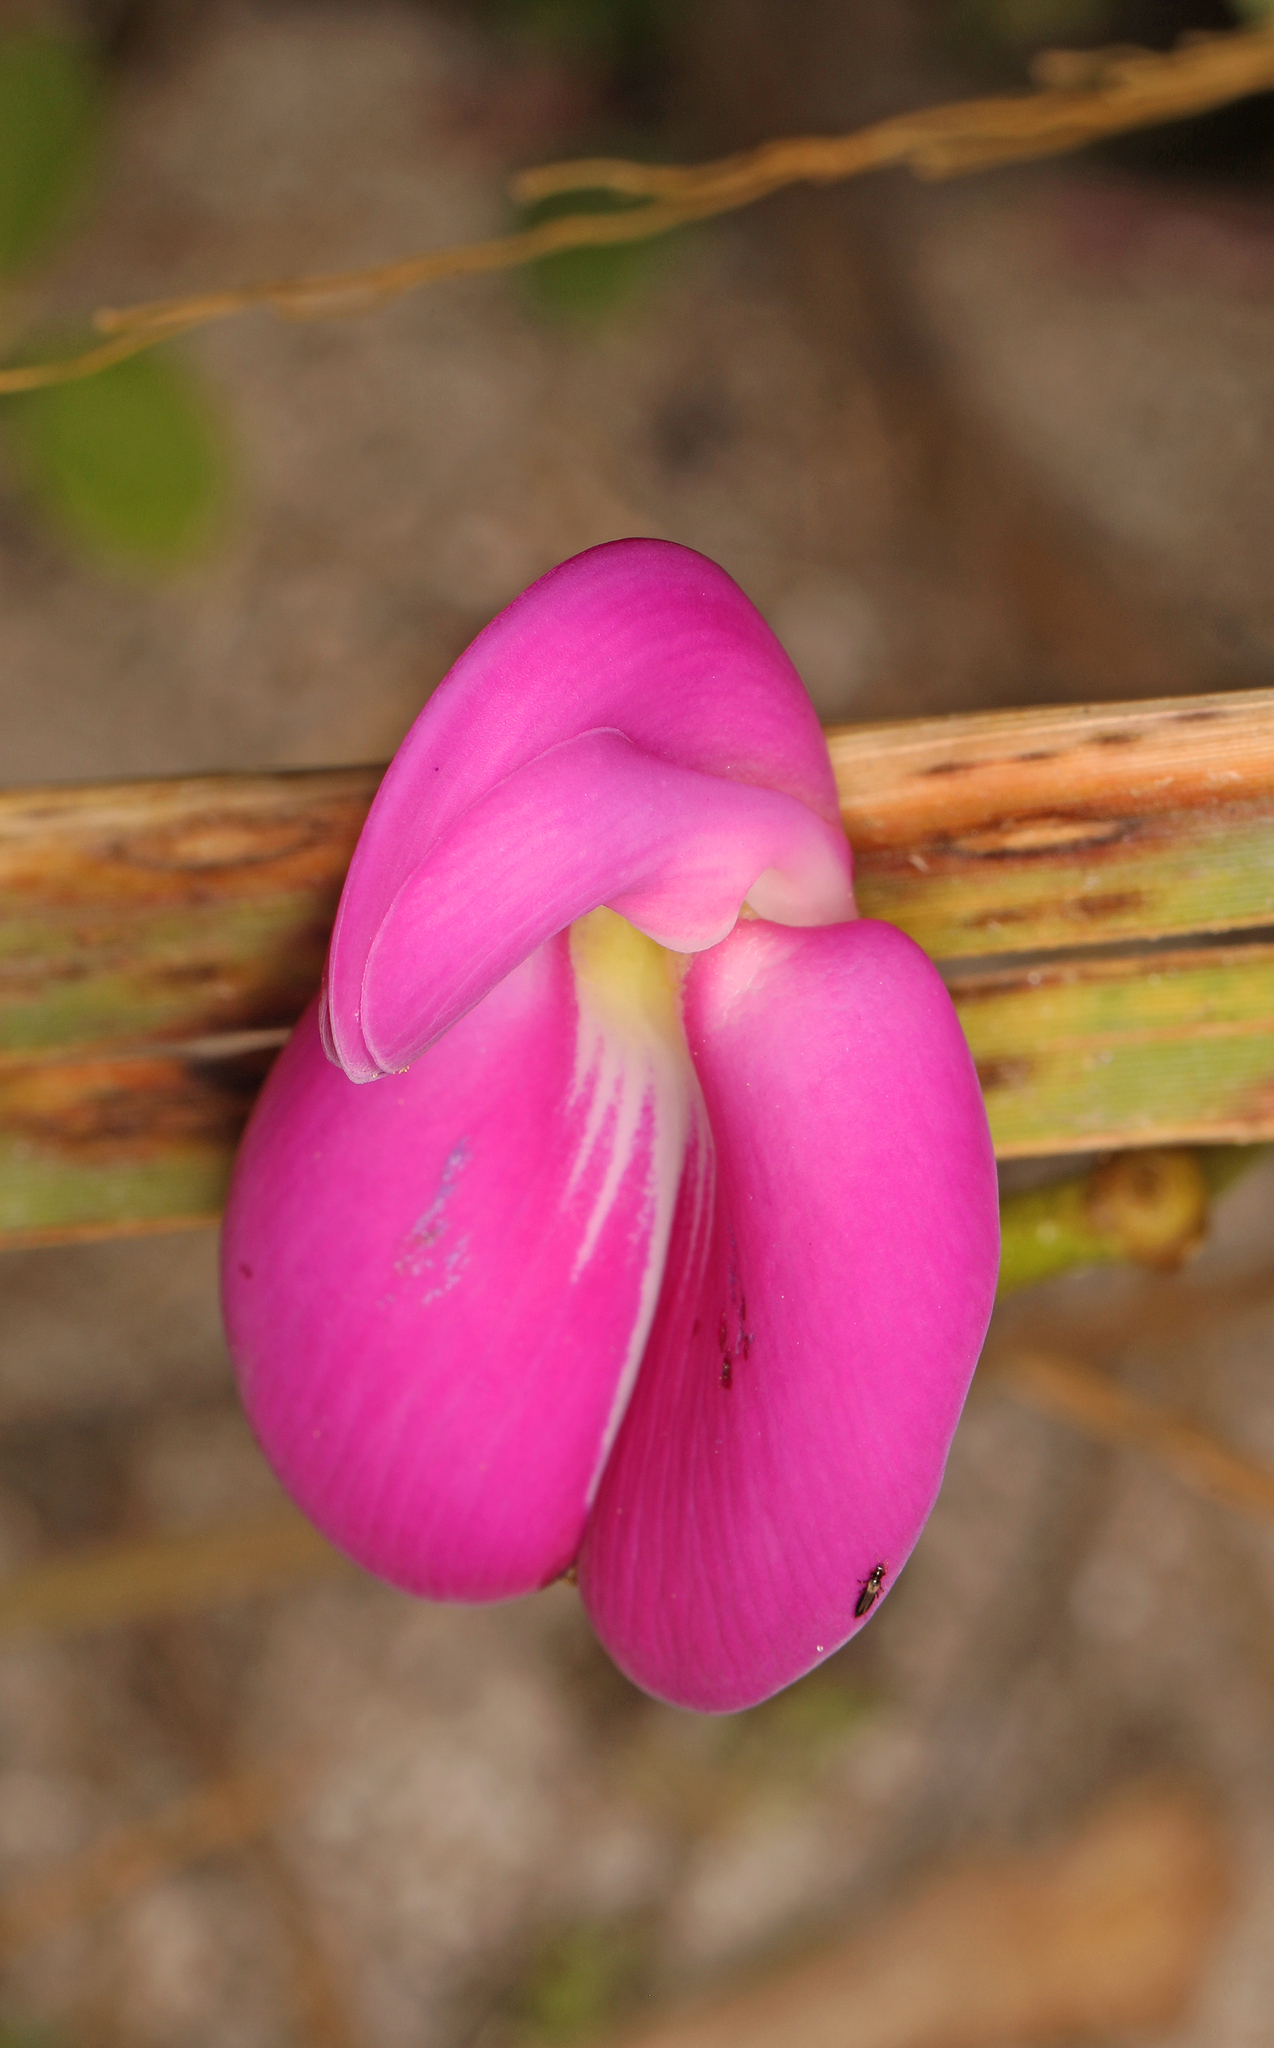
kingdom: Plantae
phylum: Tracheophyta
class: Magnoliopsida
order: Fabales
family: Fabaceae
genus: Canavalia
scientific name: Canavalia rosea
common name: Beach-bean
